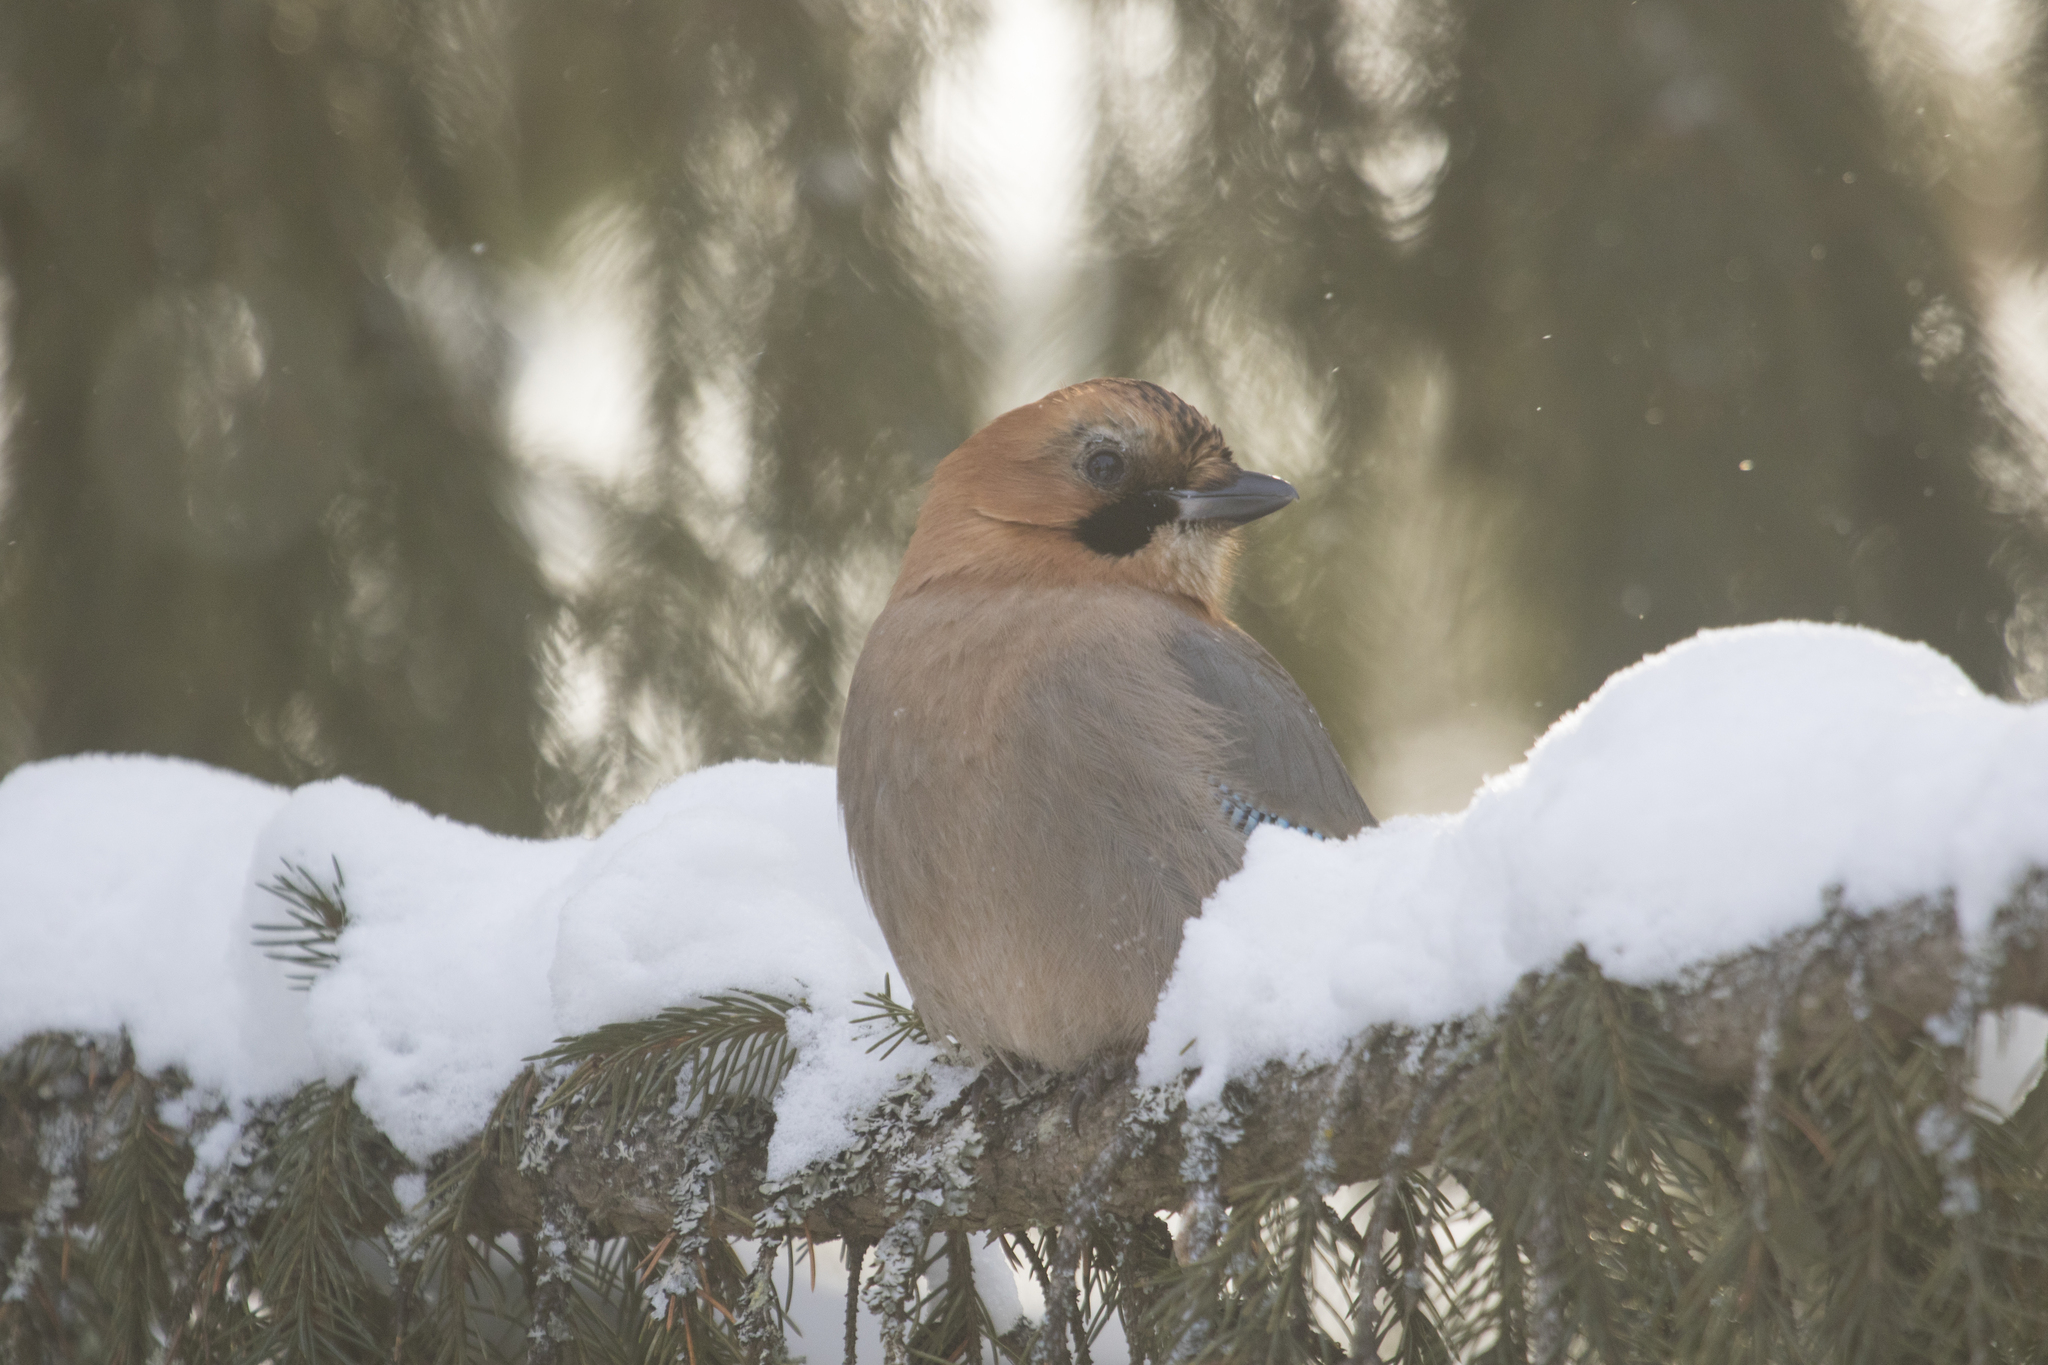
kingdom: Animalia
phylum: Chordata
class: Aves
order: Passeriformes
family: Corvidae
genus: Garrulus
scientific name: Garrulus glandarius
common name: Eurasian jay
